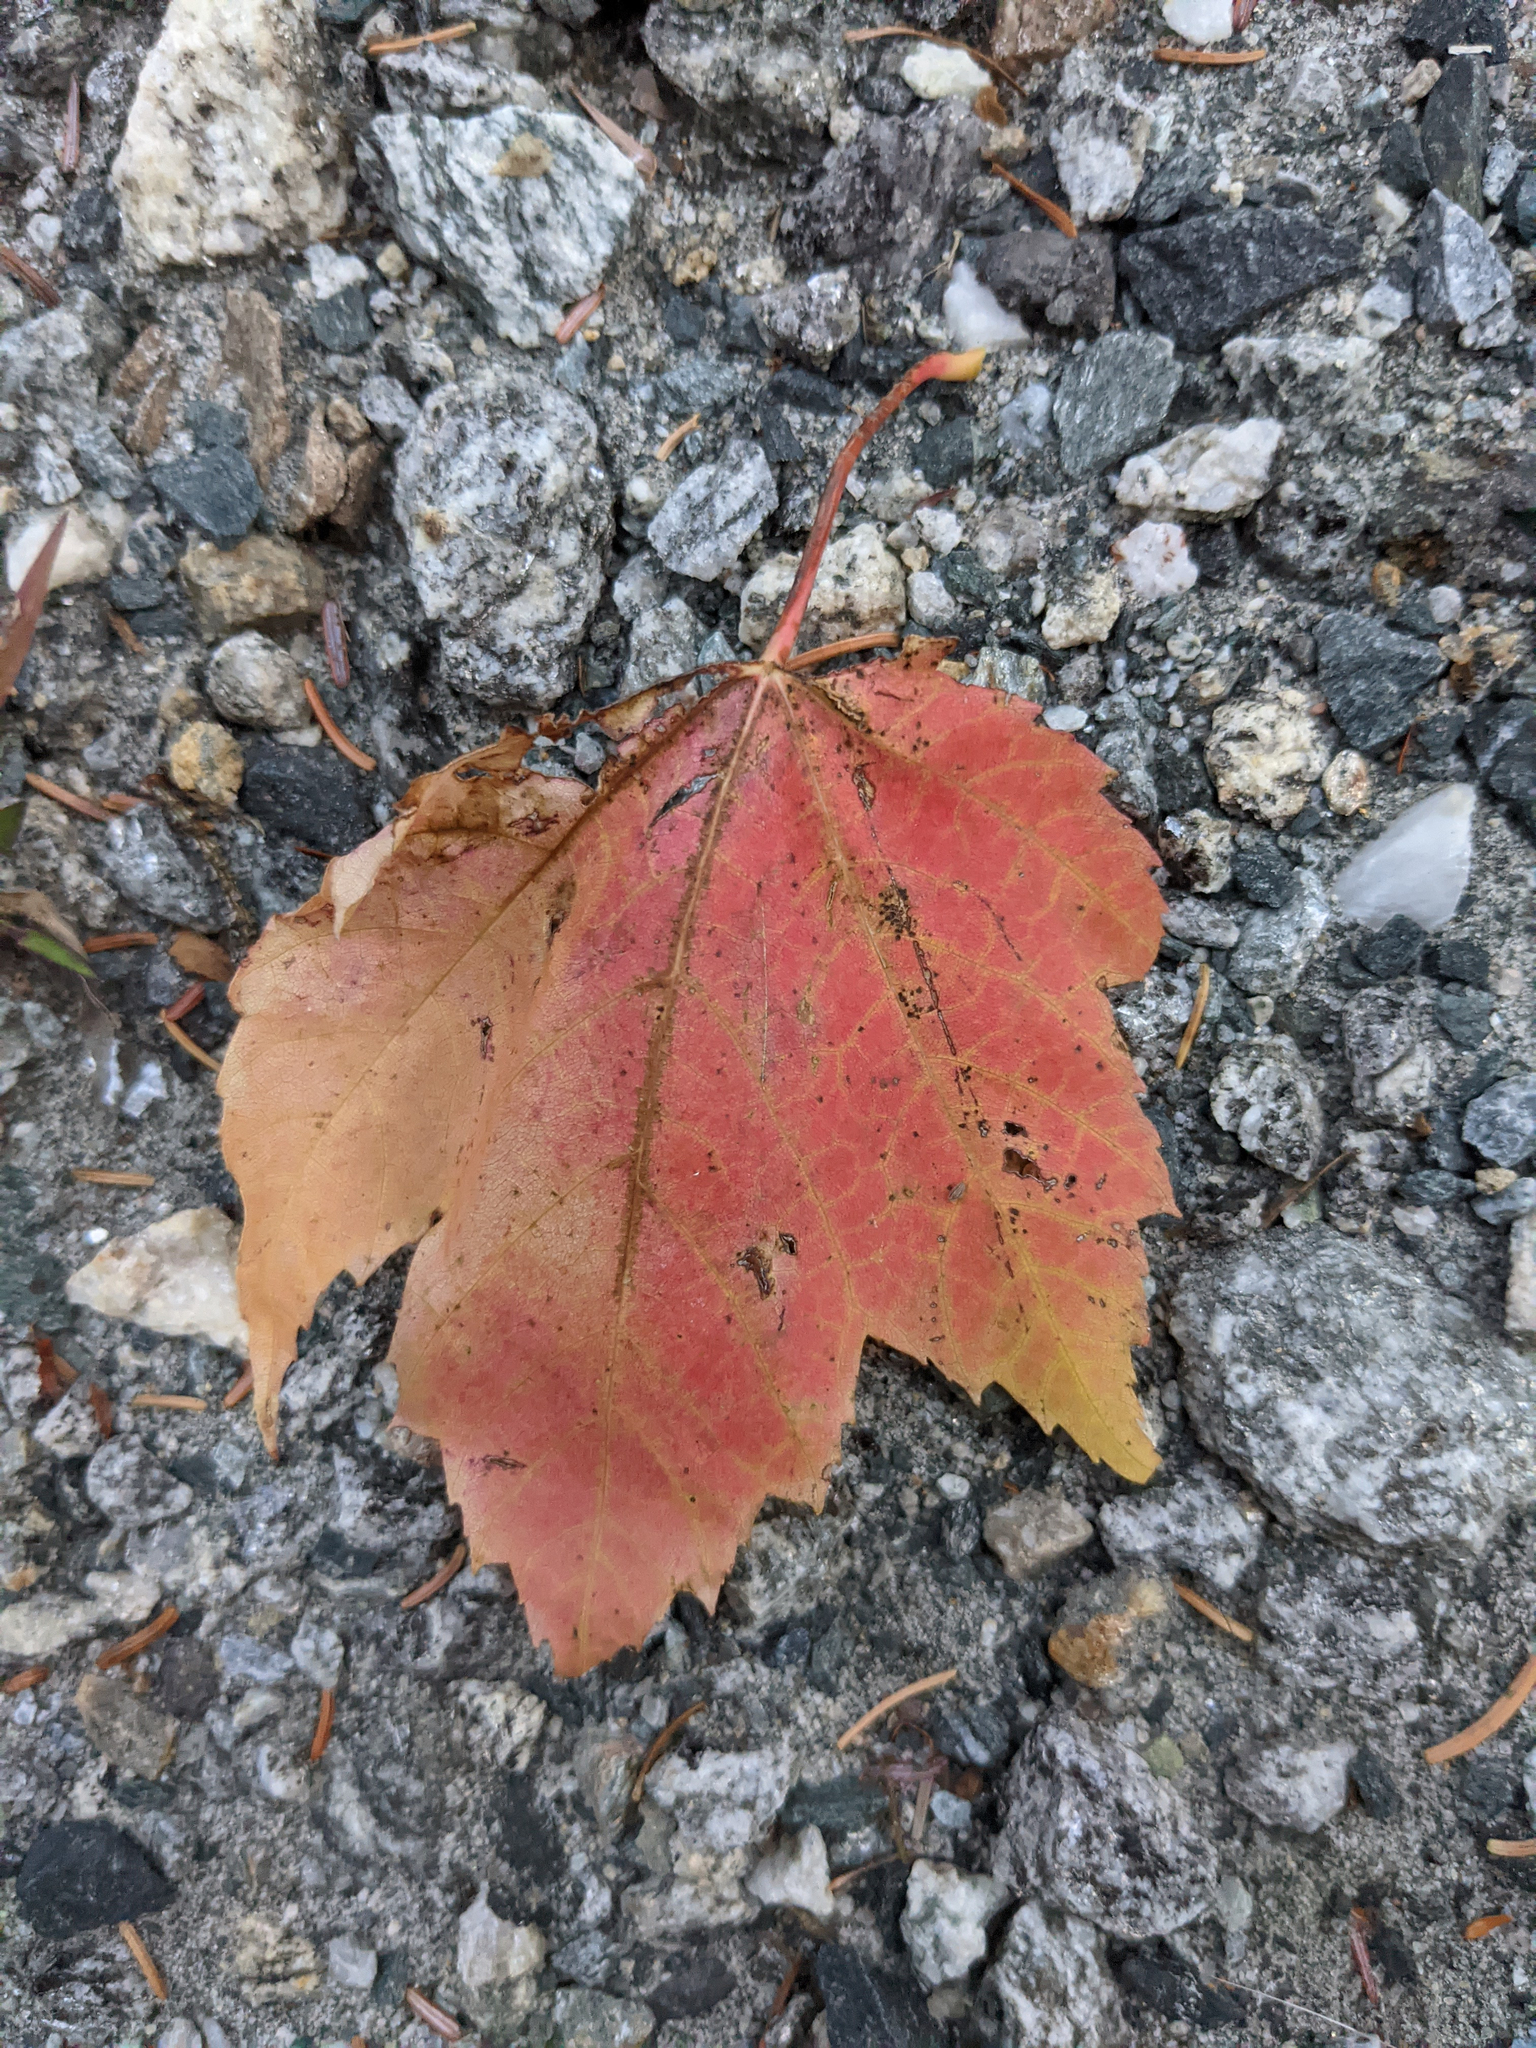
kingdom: Plantae
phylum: Tracheophyta
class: Magnoliopsida
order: Sapindales
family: Sapindaceae
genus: Acer
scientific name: Acer rubrum
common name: Red maple
